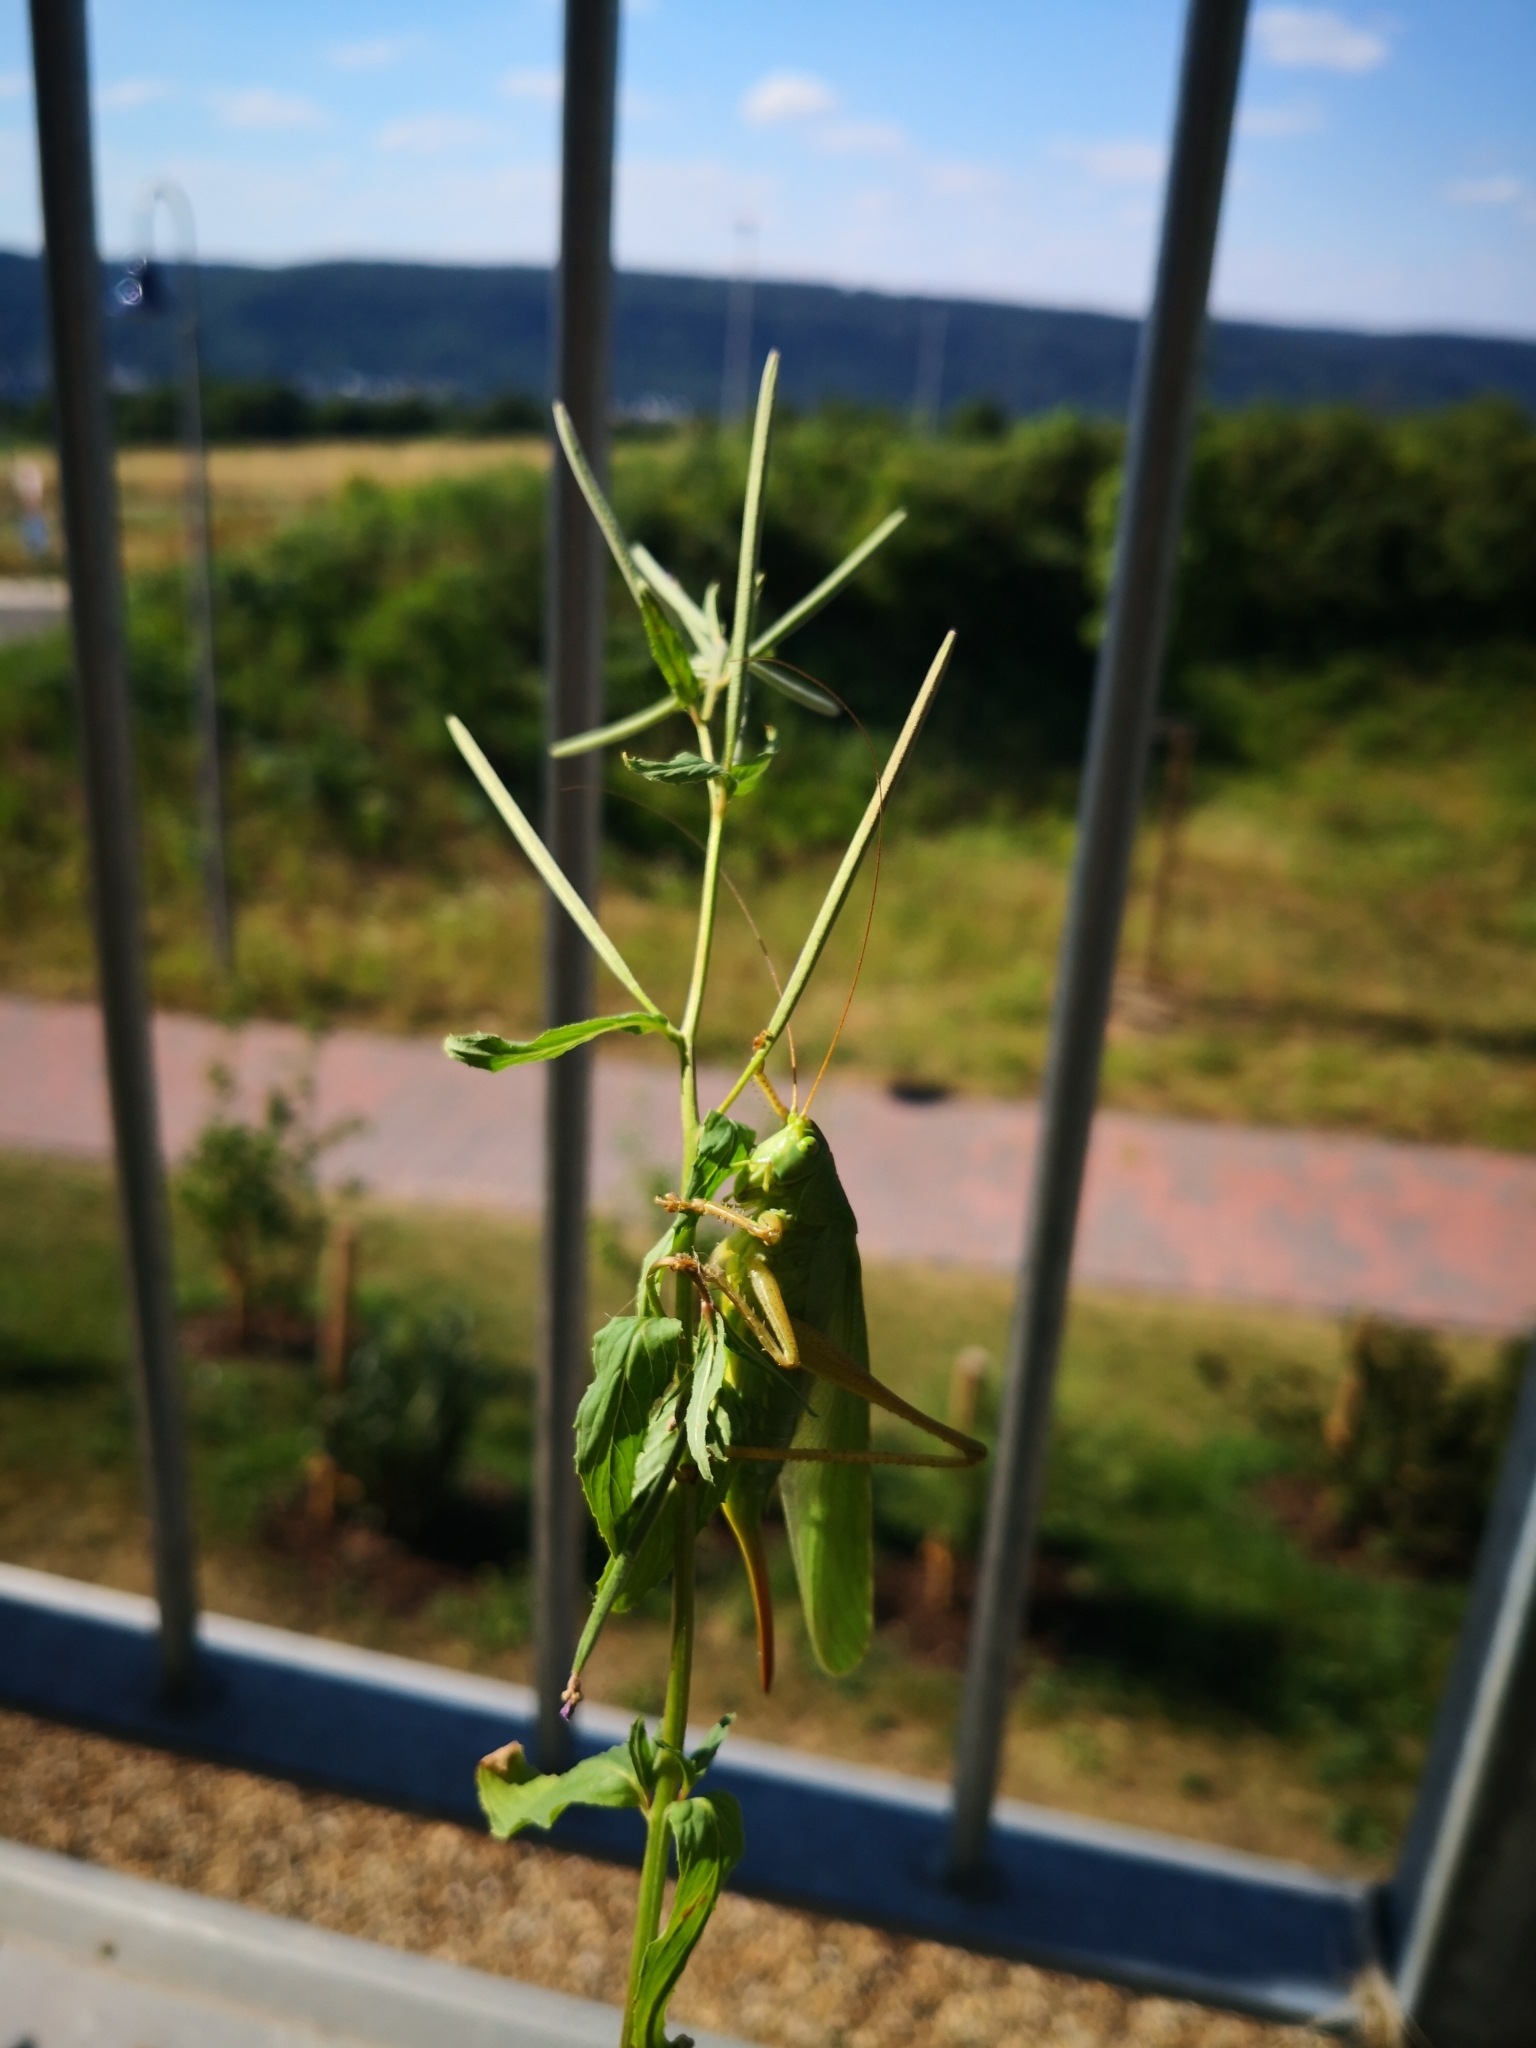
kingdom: Animalia
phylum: Arthropoda
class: Insecta
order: Orthoptera
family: Tettigoniidae
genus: Tettigonia
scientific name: Tettigonia viridissima
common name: Great green bush-cricket
